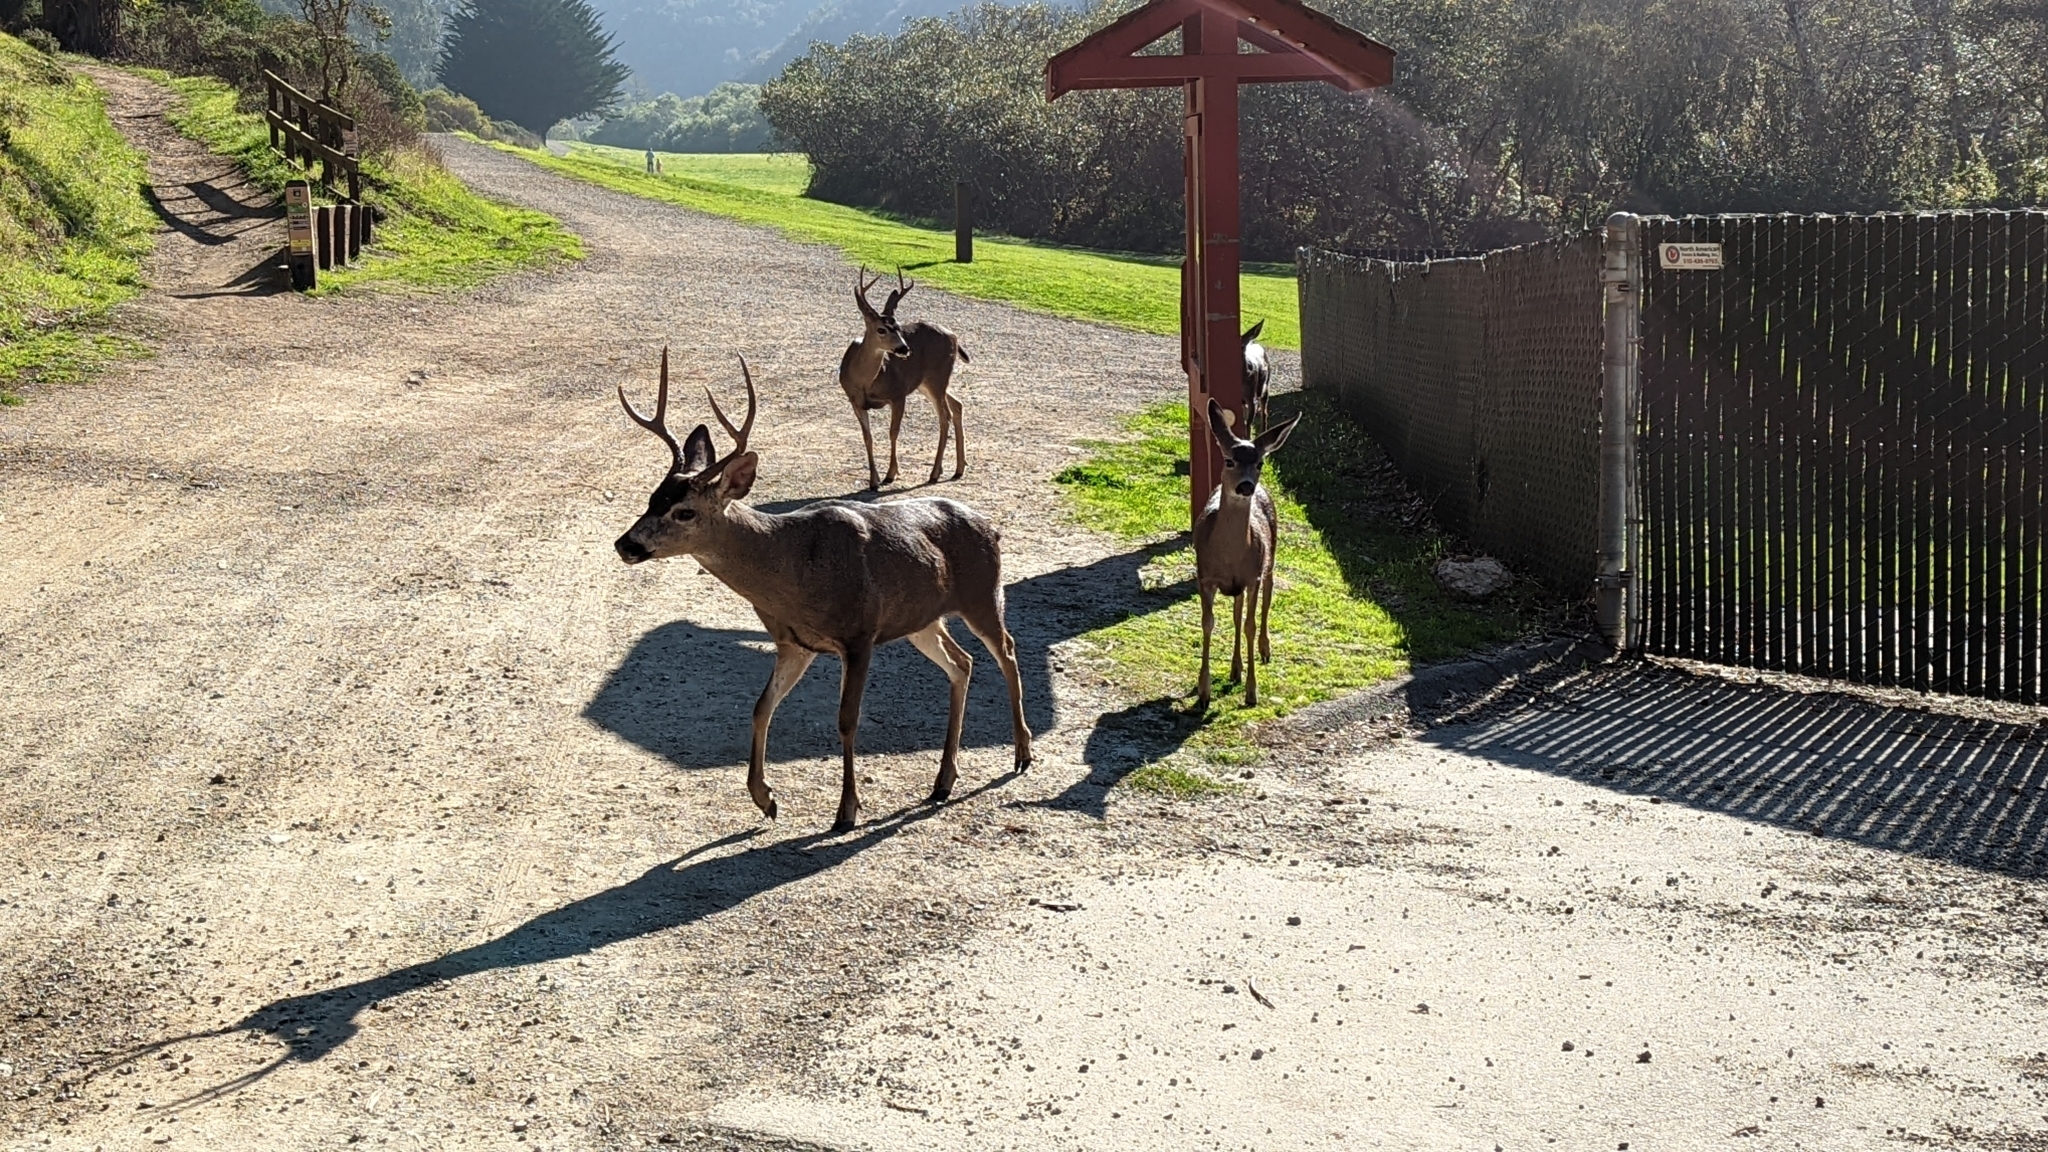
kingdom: Animalia
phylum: Chordata
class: Mammalia
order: Artiodactyla
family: Cervidae
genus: Odocoileus
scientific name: Odocoileus hemionus
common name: Mule deer
